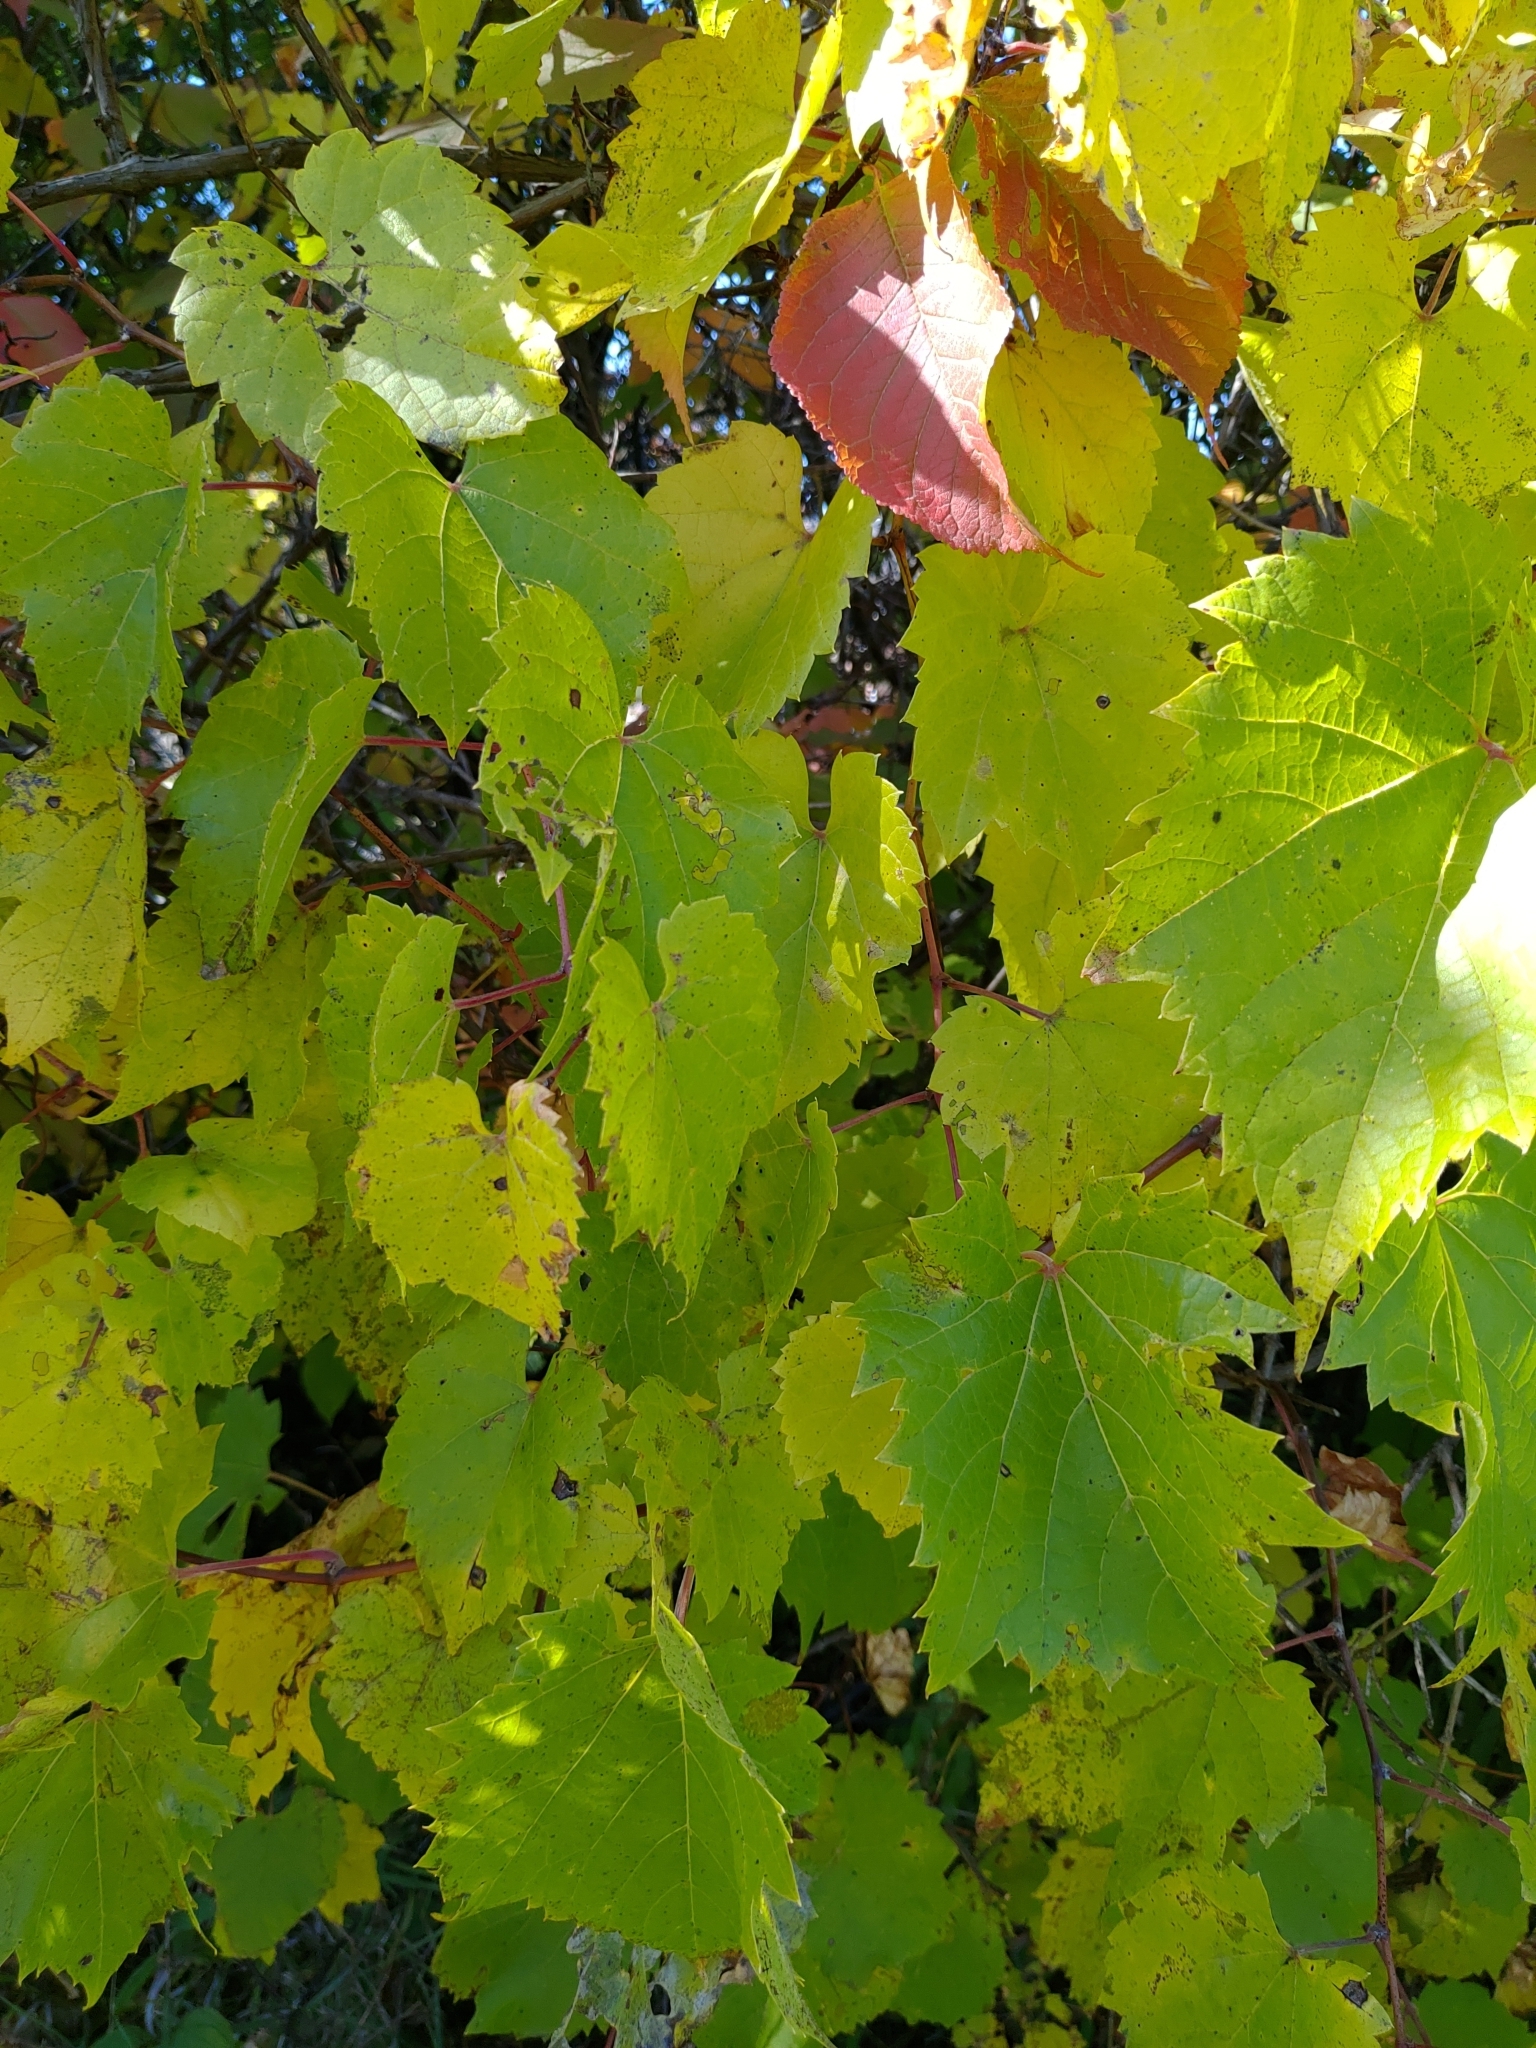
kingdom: Plantae
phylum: Tracheophyta
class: Magnoliopsida
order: Vitales
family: Vitaceae
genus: Vitis
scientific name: Vitis riparia
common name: Frost grape
